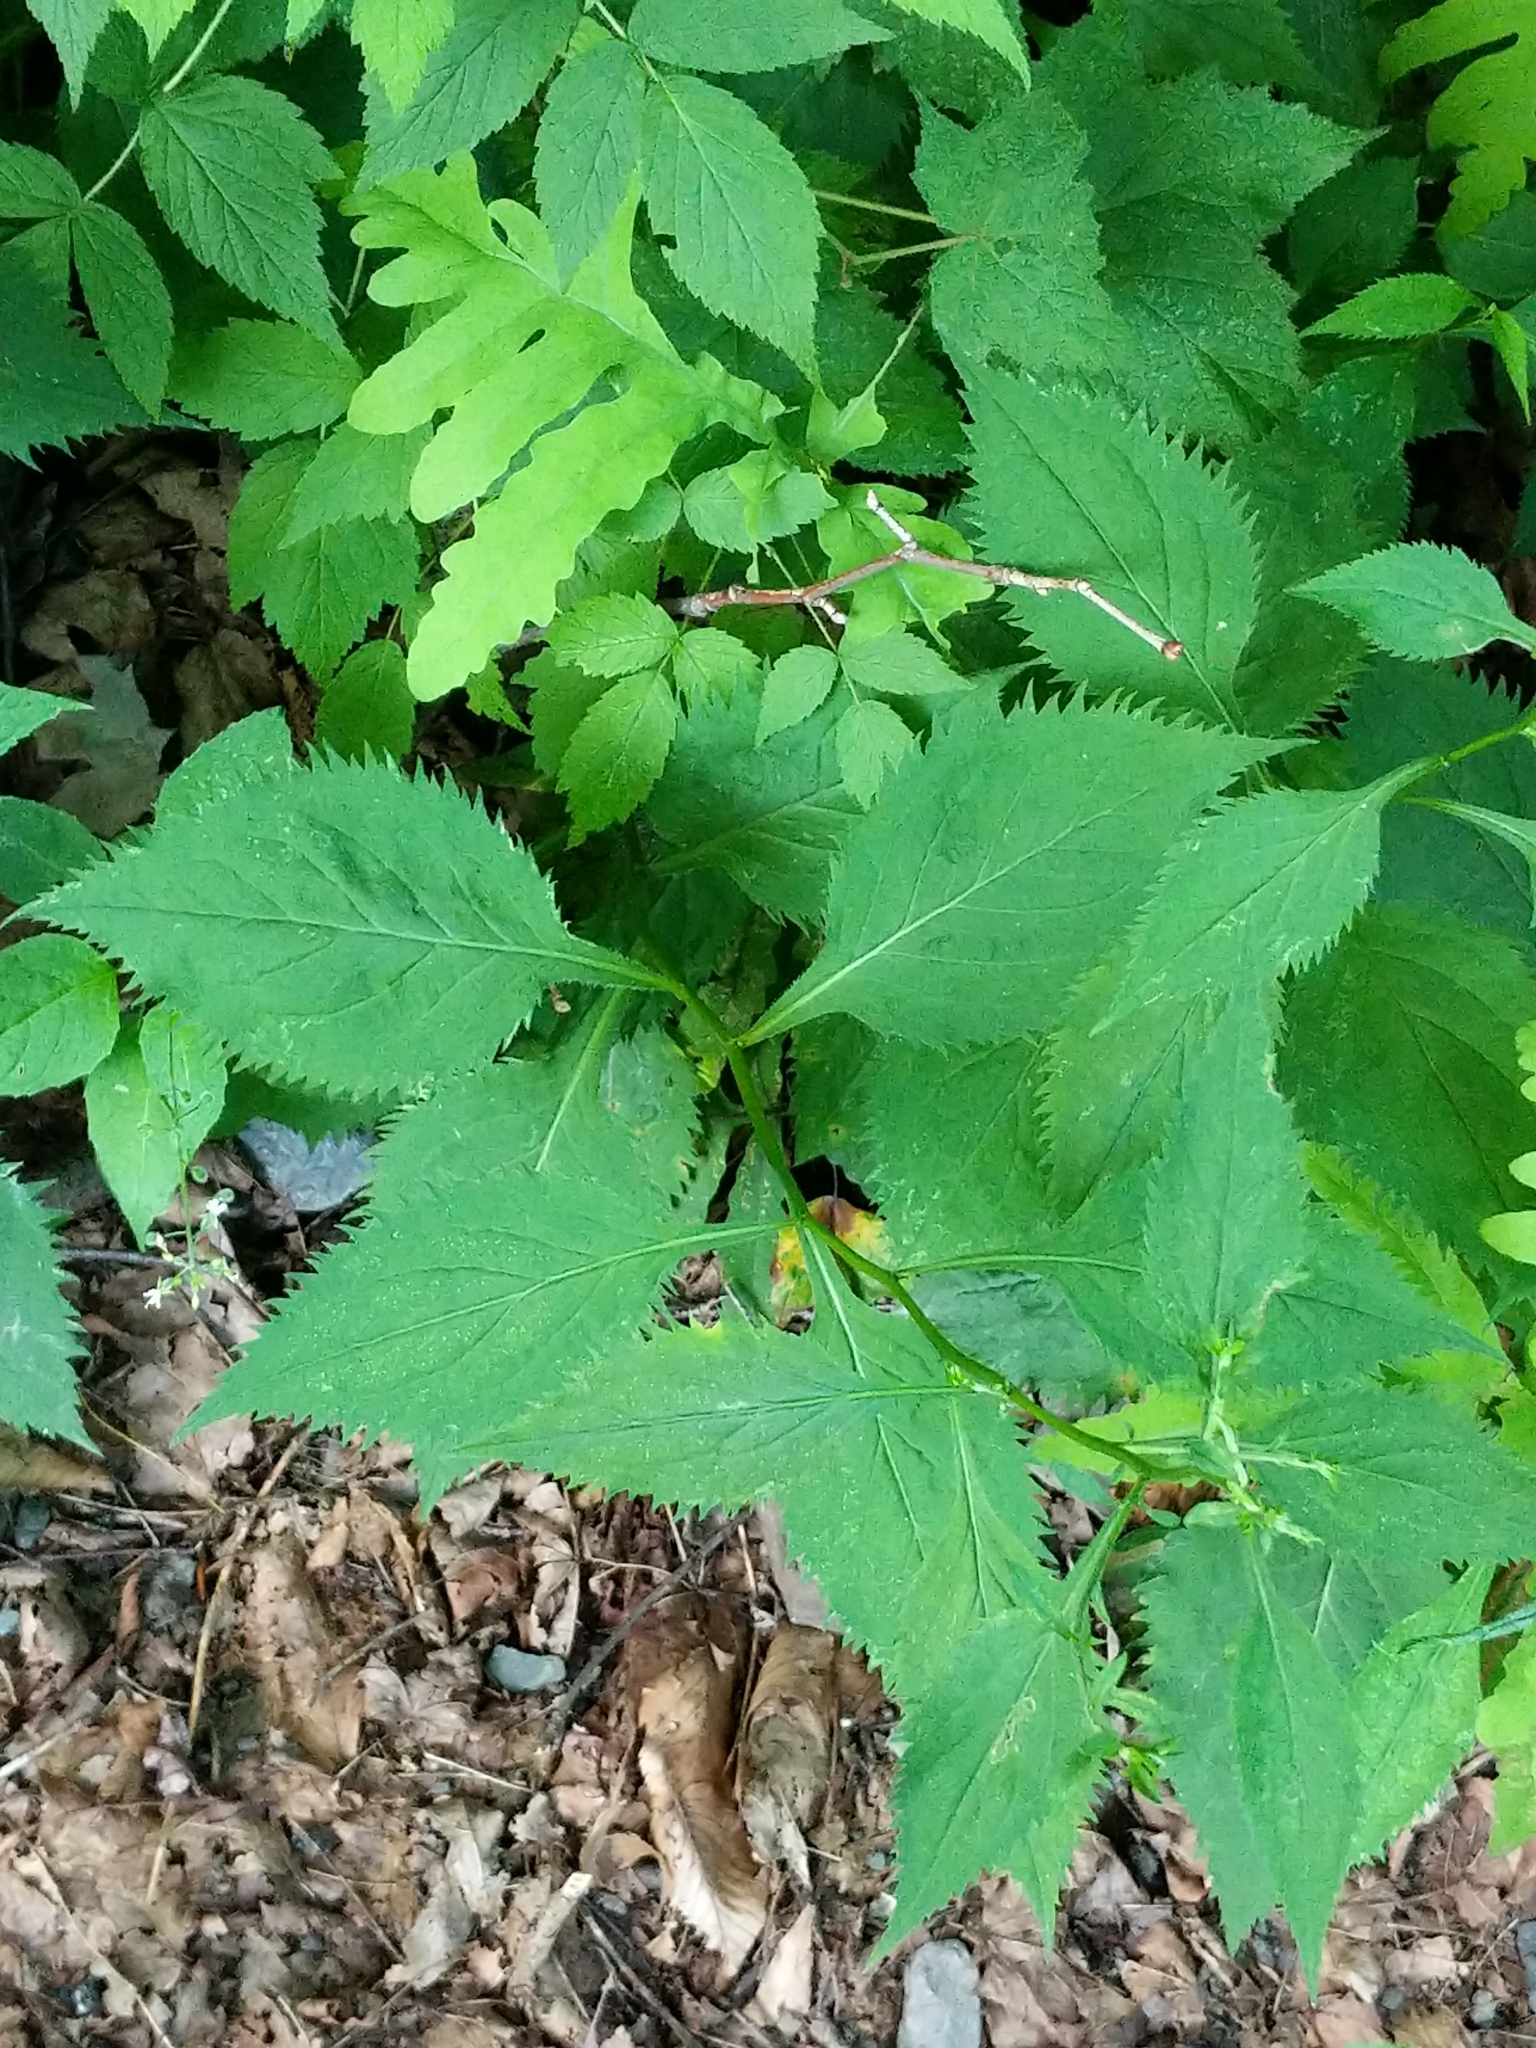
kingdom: Plantae
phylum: Tracheophyta
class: Magnoliopsida
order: Asterales
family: Asteraceae
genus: Solidago
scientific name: Solidago flexicaulis
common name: Zig-zag goldenrod
